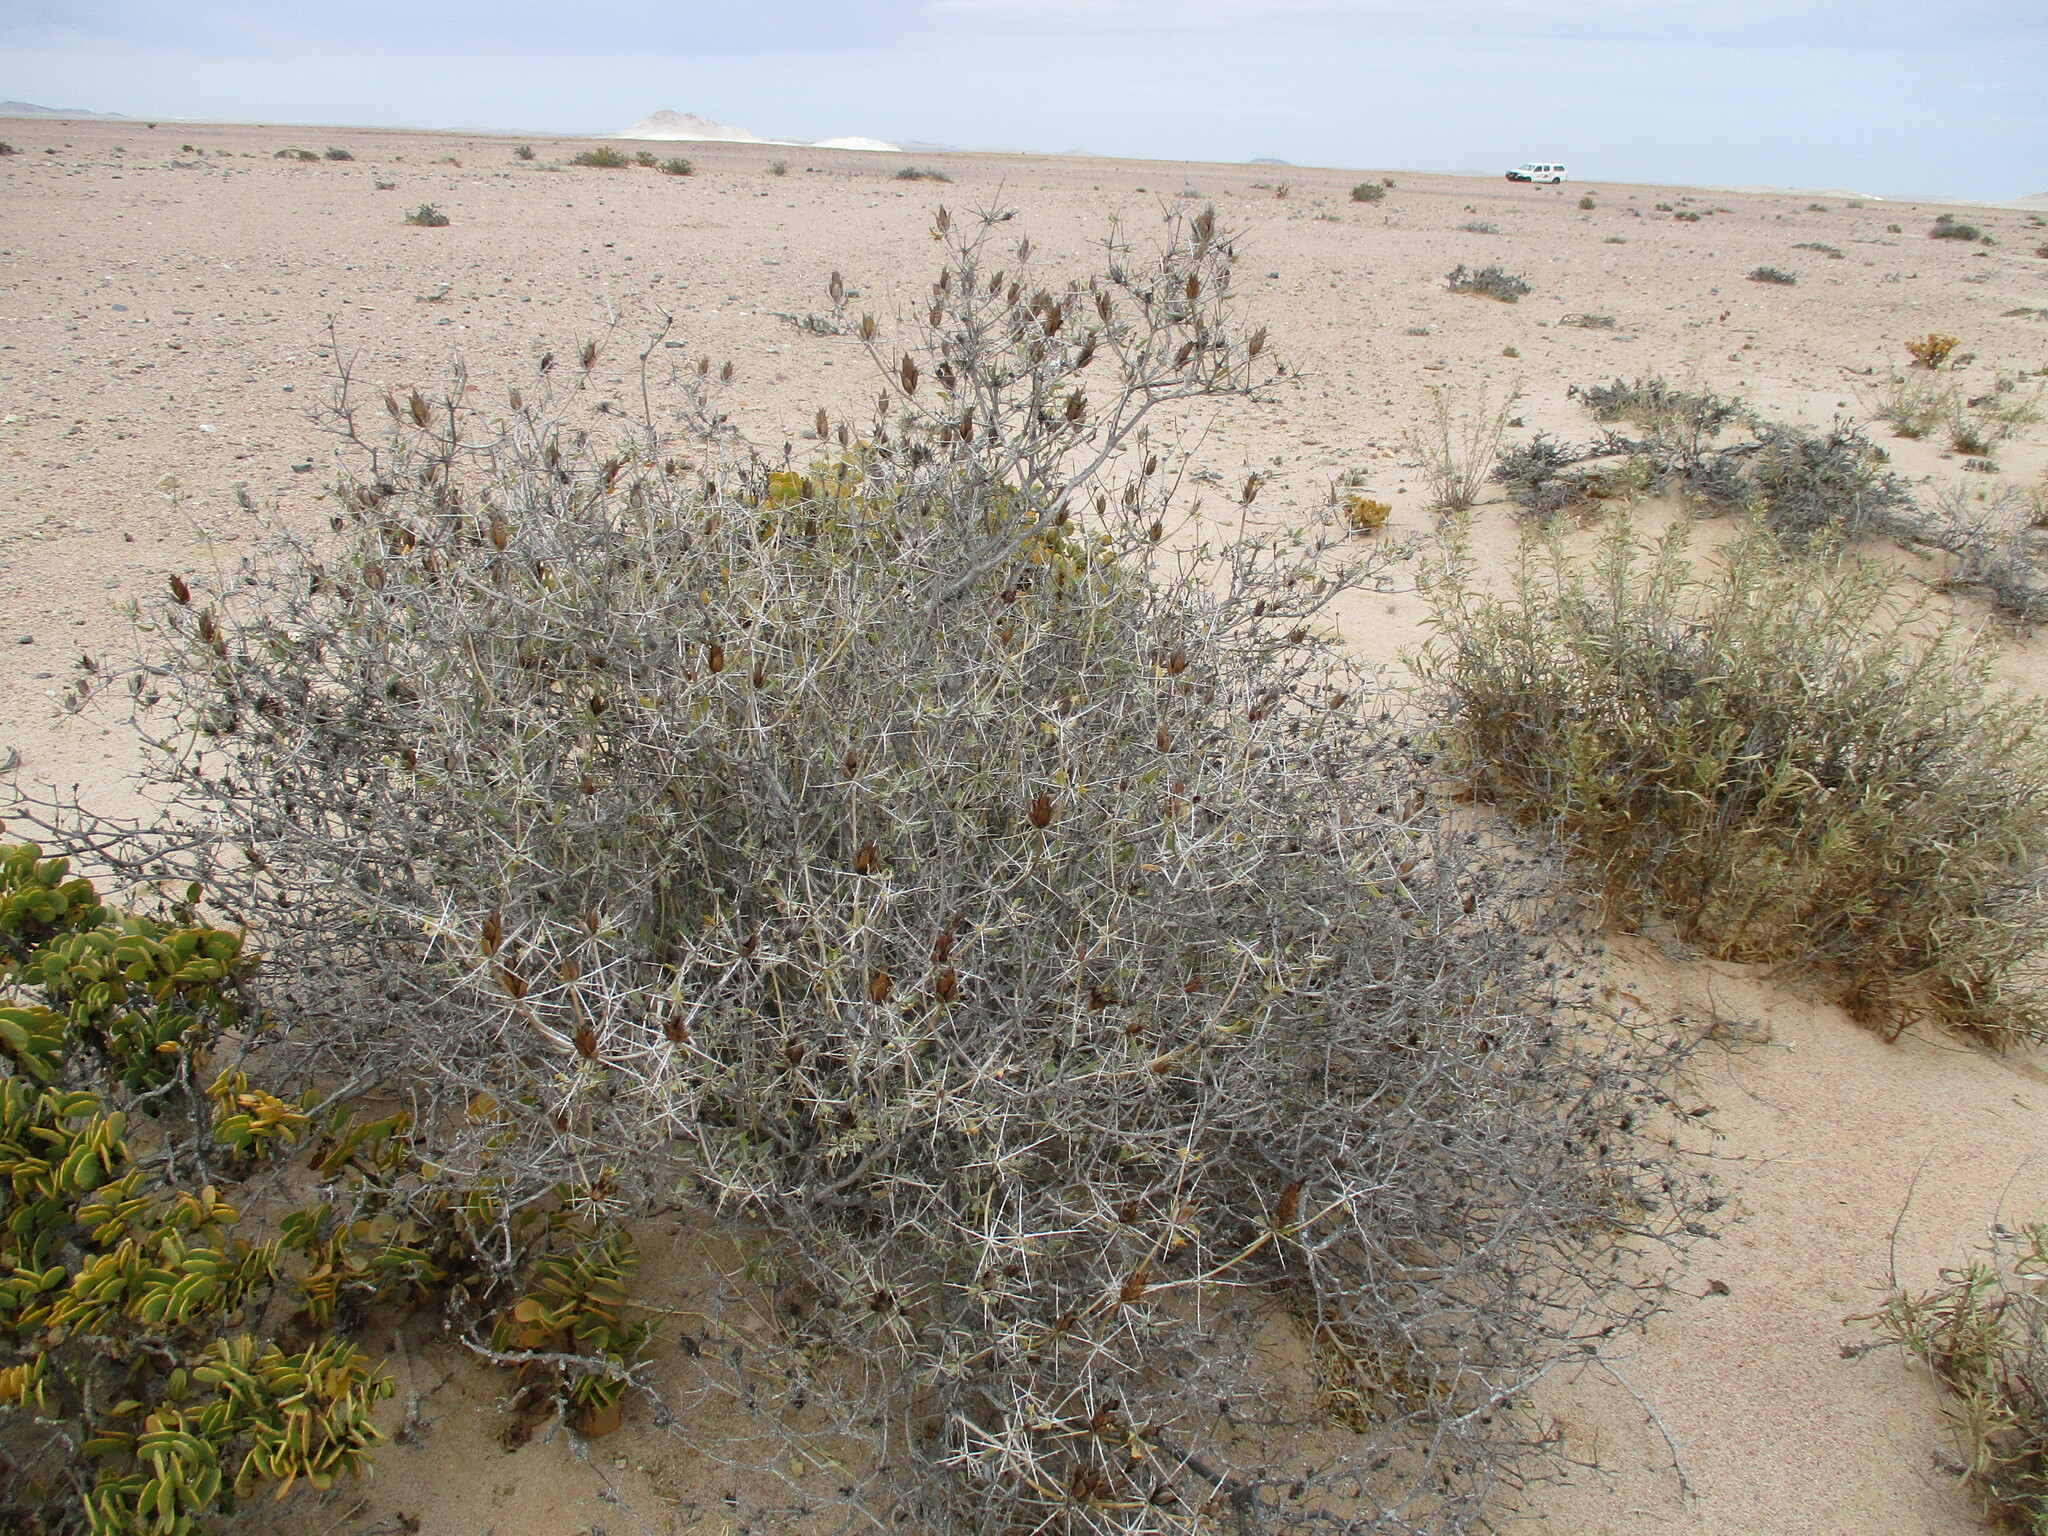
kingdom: Plantae
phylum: Tracheophyta
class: Magnoliopsida
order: Lamiales
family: Acanthaceae
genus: Blepharis
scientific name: Blepharis gigantea
